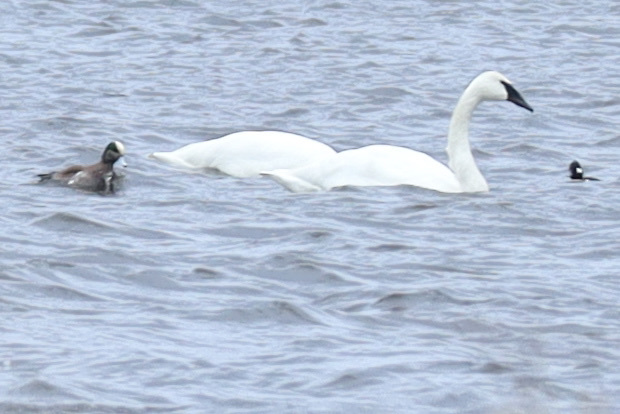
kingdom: Animalia
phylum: Chordata
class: Aves
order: Anseriformes
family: Anatidae
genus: Cygnus
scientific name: Cygnus buccinator
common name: Trumpeter swan
